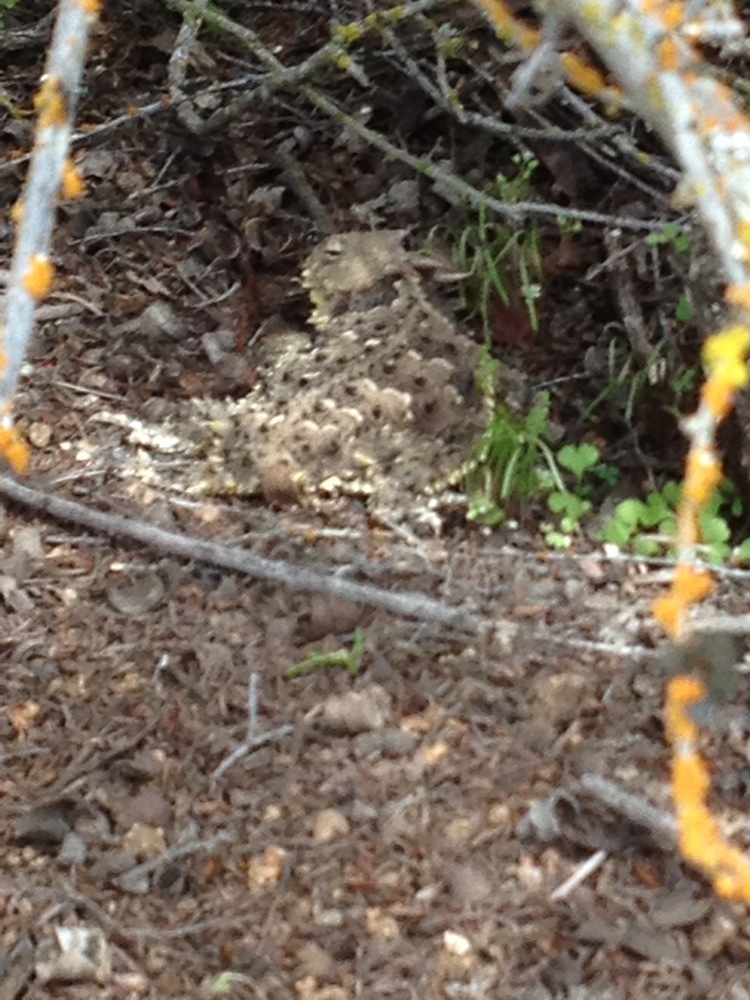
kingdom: Animalia
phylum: Chordata
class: Squamata
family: Phrynosomatidae
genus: Phrynosoma
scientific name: Phrynosoma blainvillii
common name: San diego horned lizard
